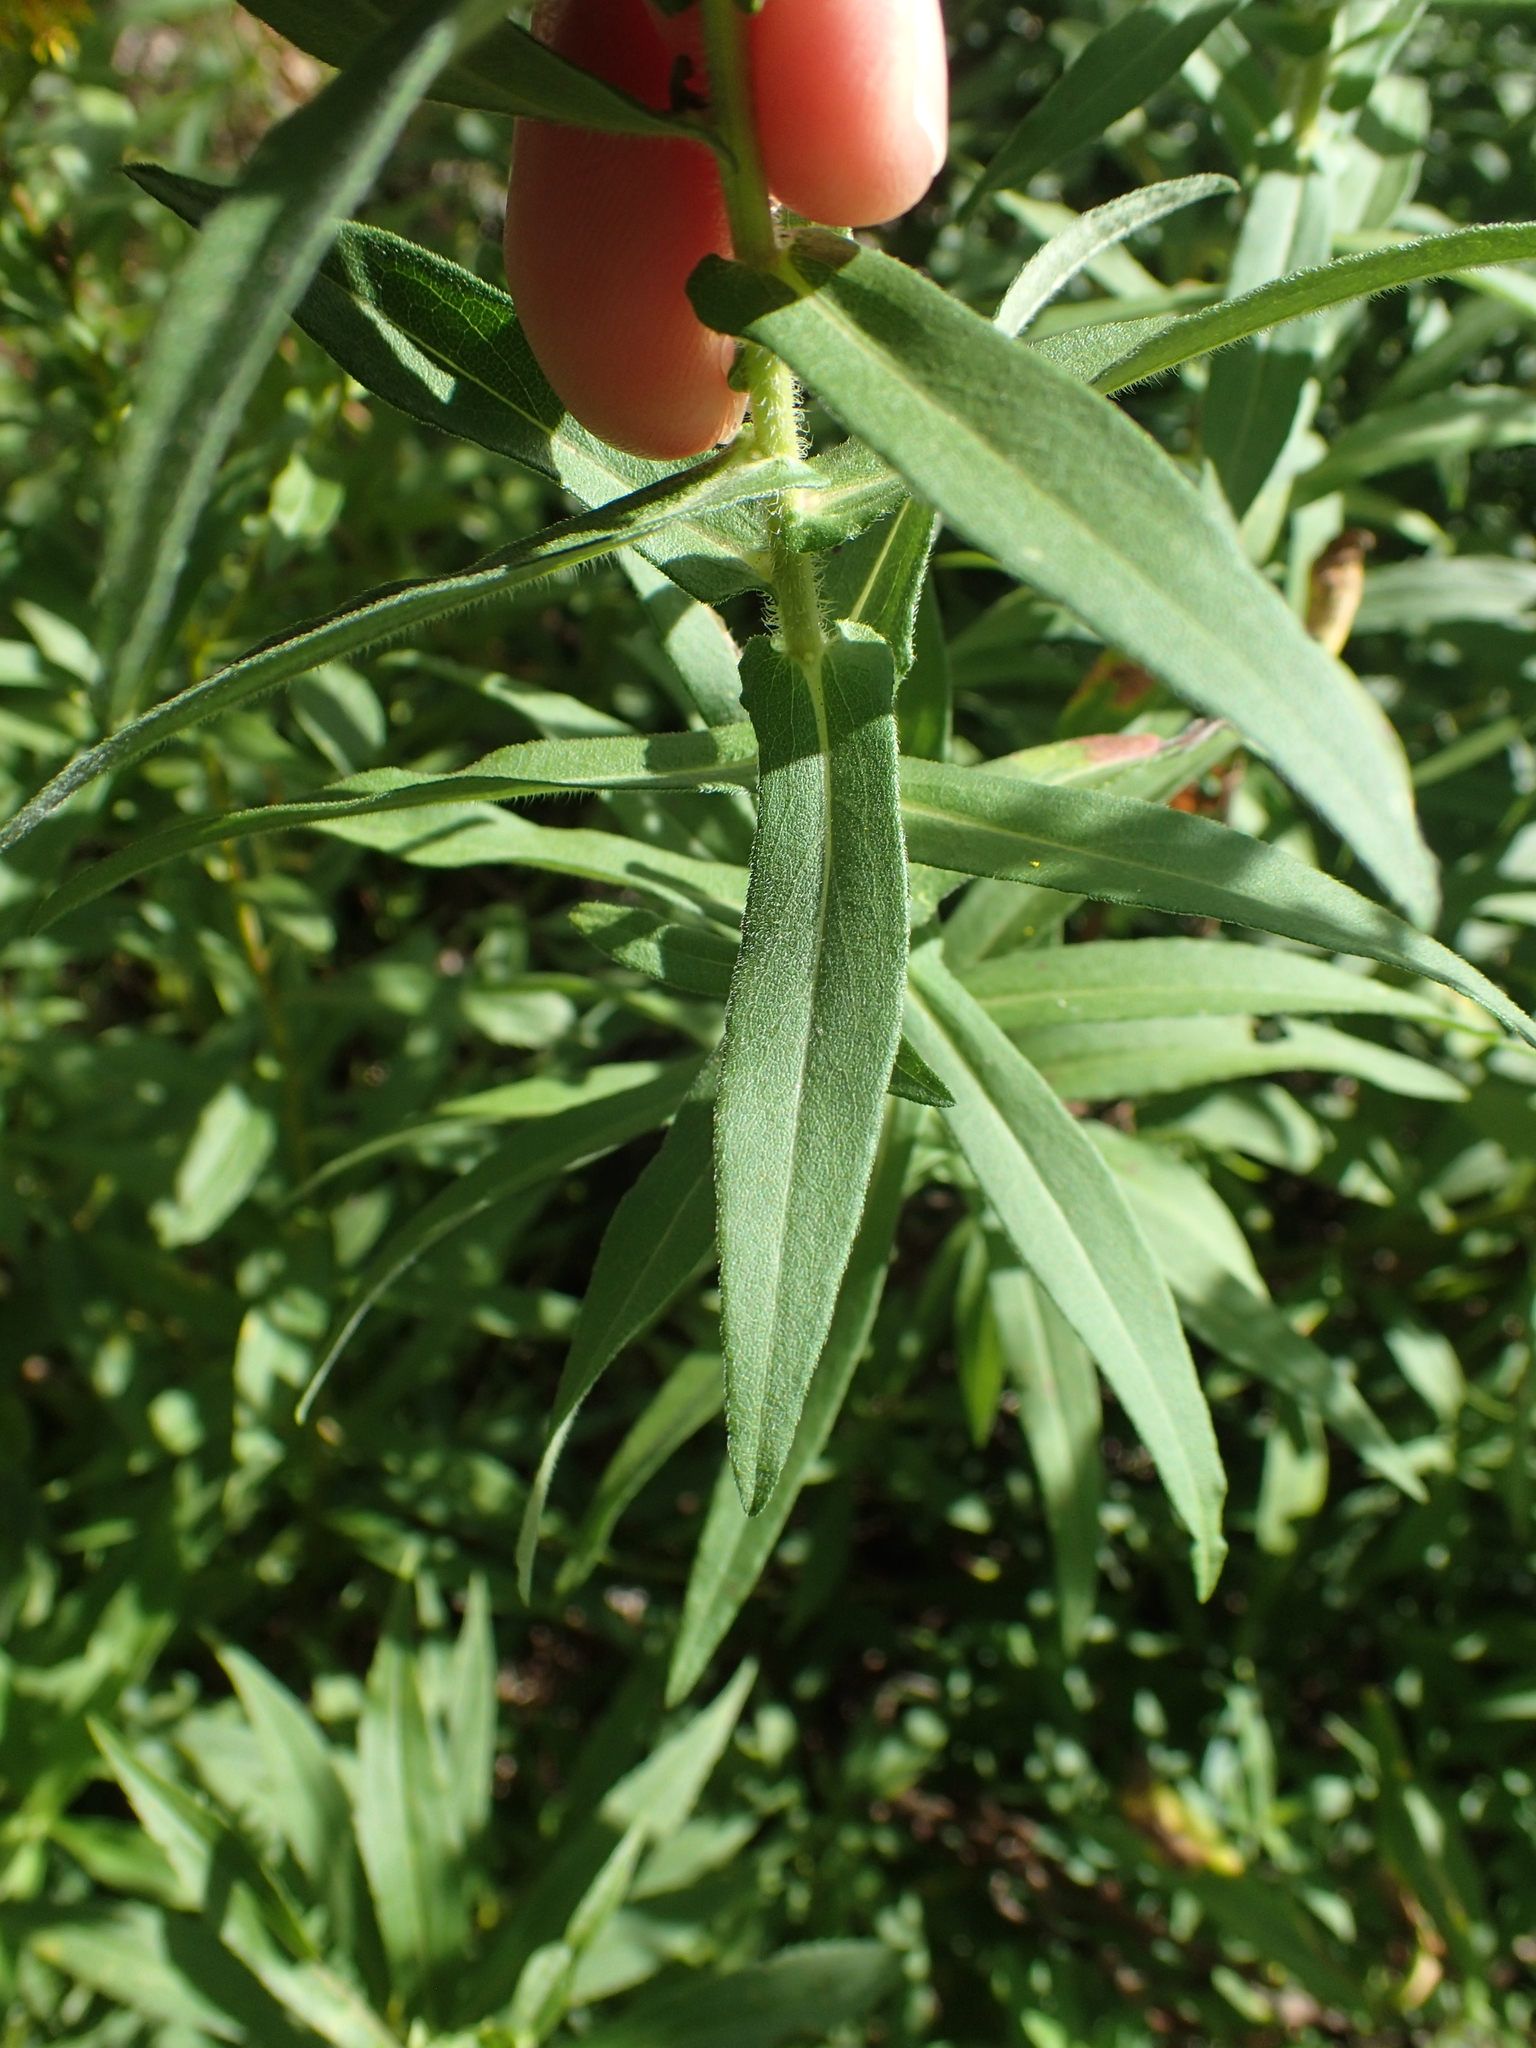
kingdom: Plantae
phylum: Tracheophyta
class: Magnoliopsida
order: Asterales
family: Asteraceae
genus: Symphyotrichum
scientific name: Symphyotrichum novae-angliae
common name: Michaelmas daisy
